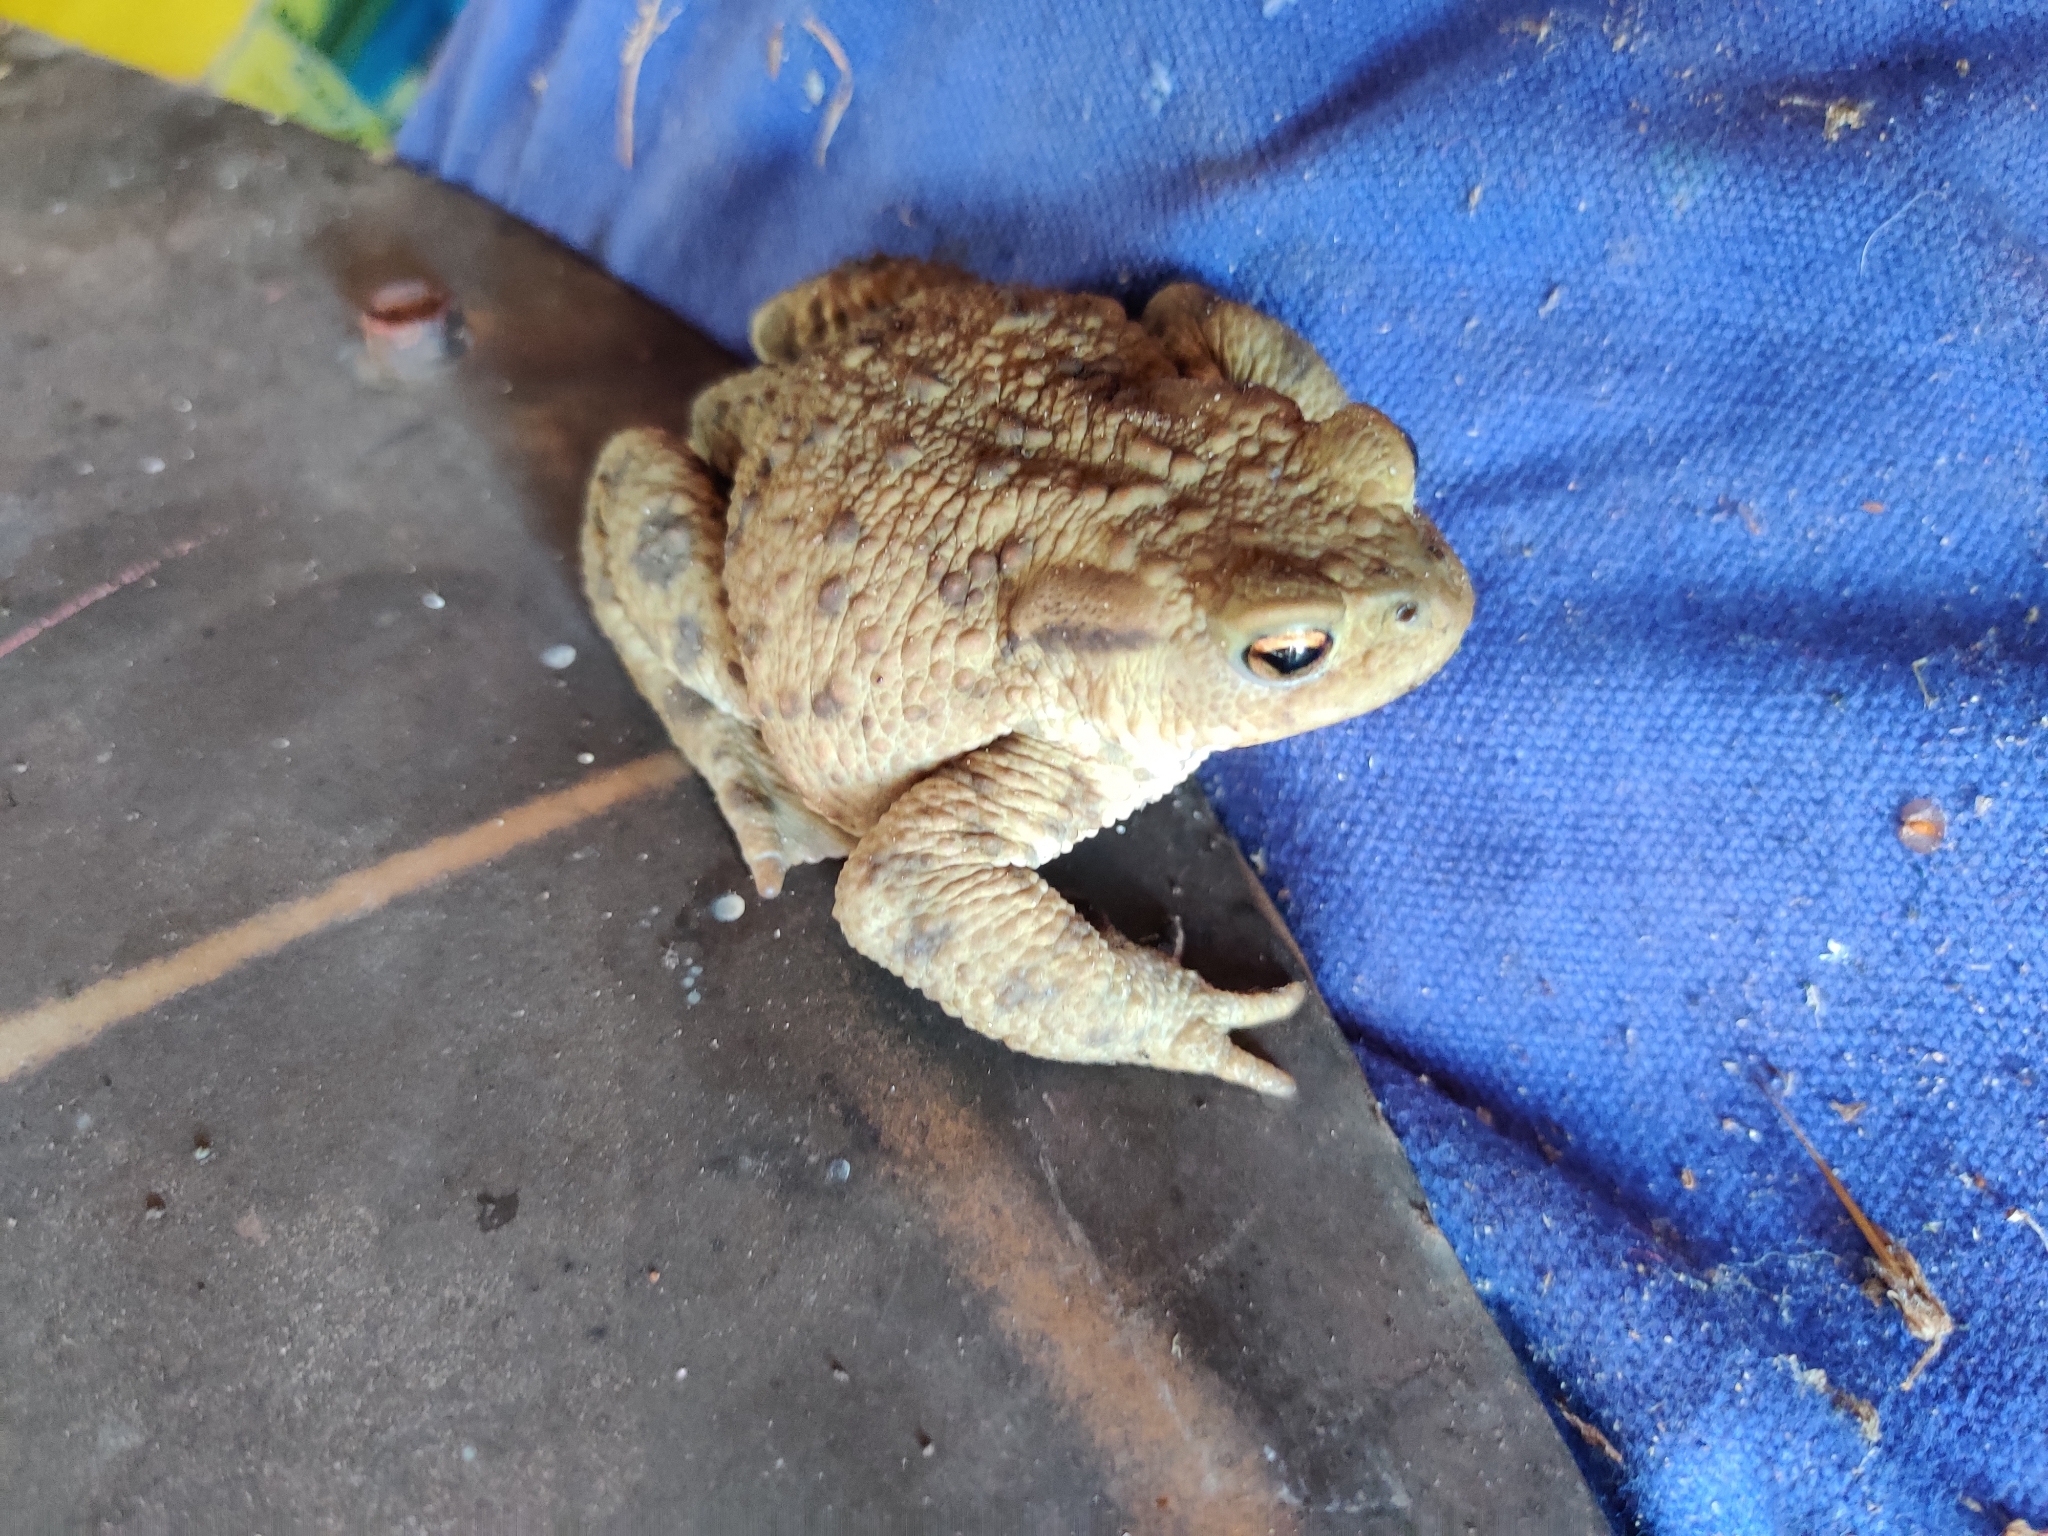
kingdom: Animalia
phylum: Chordata
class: Amphibia
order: Anura
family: Bufonidae
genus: Bufo
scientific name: Bufo bufo
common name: Common toad
